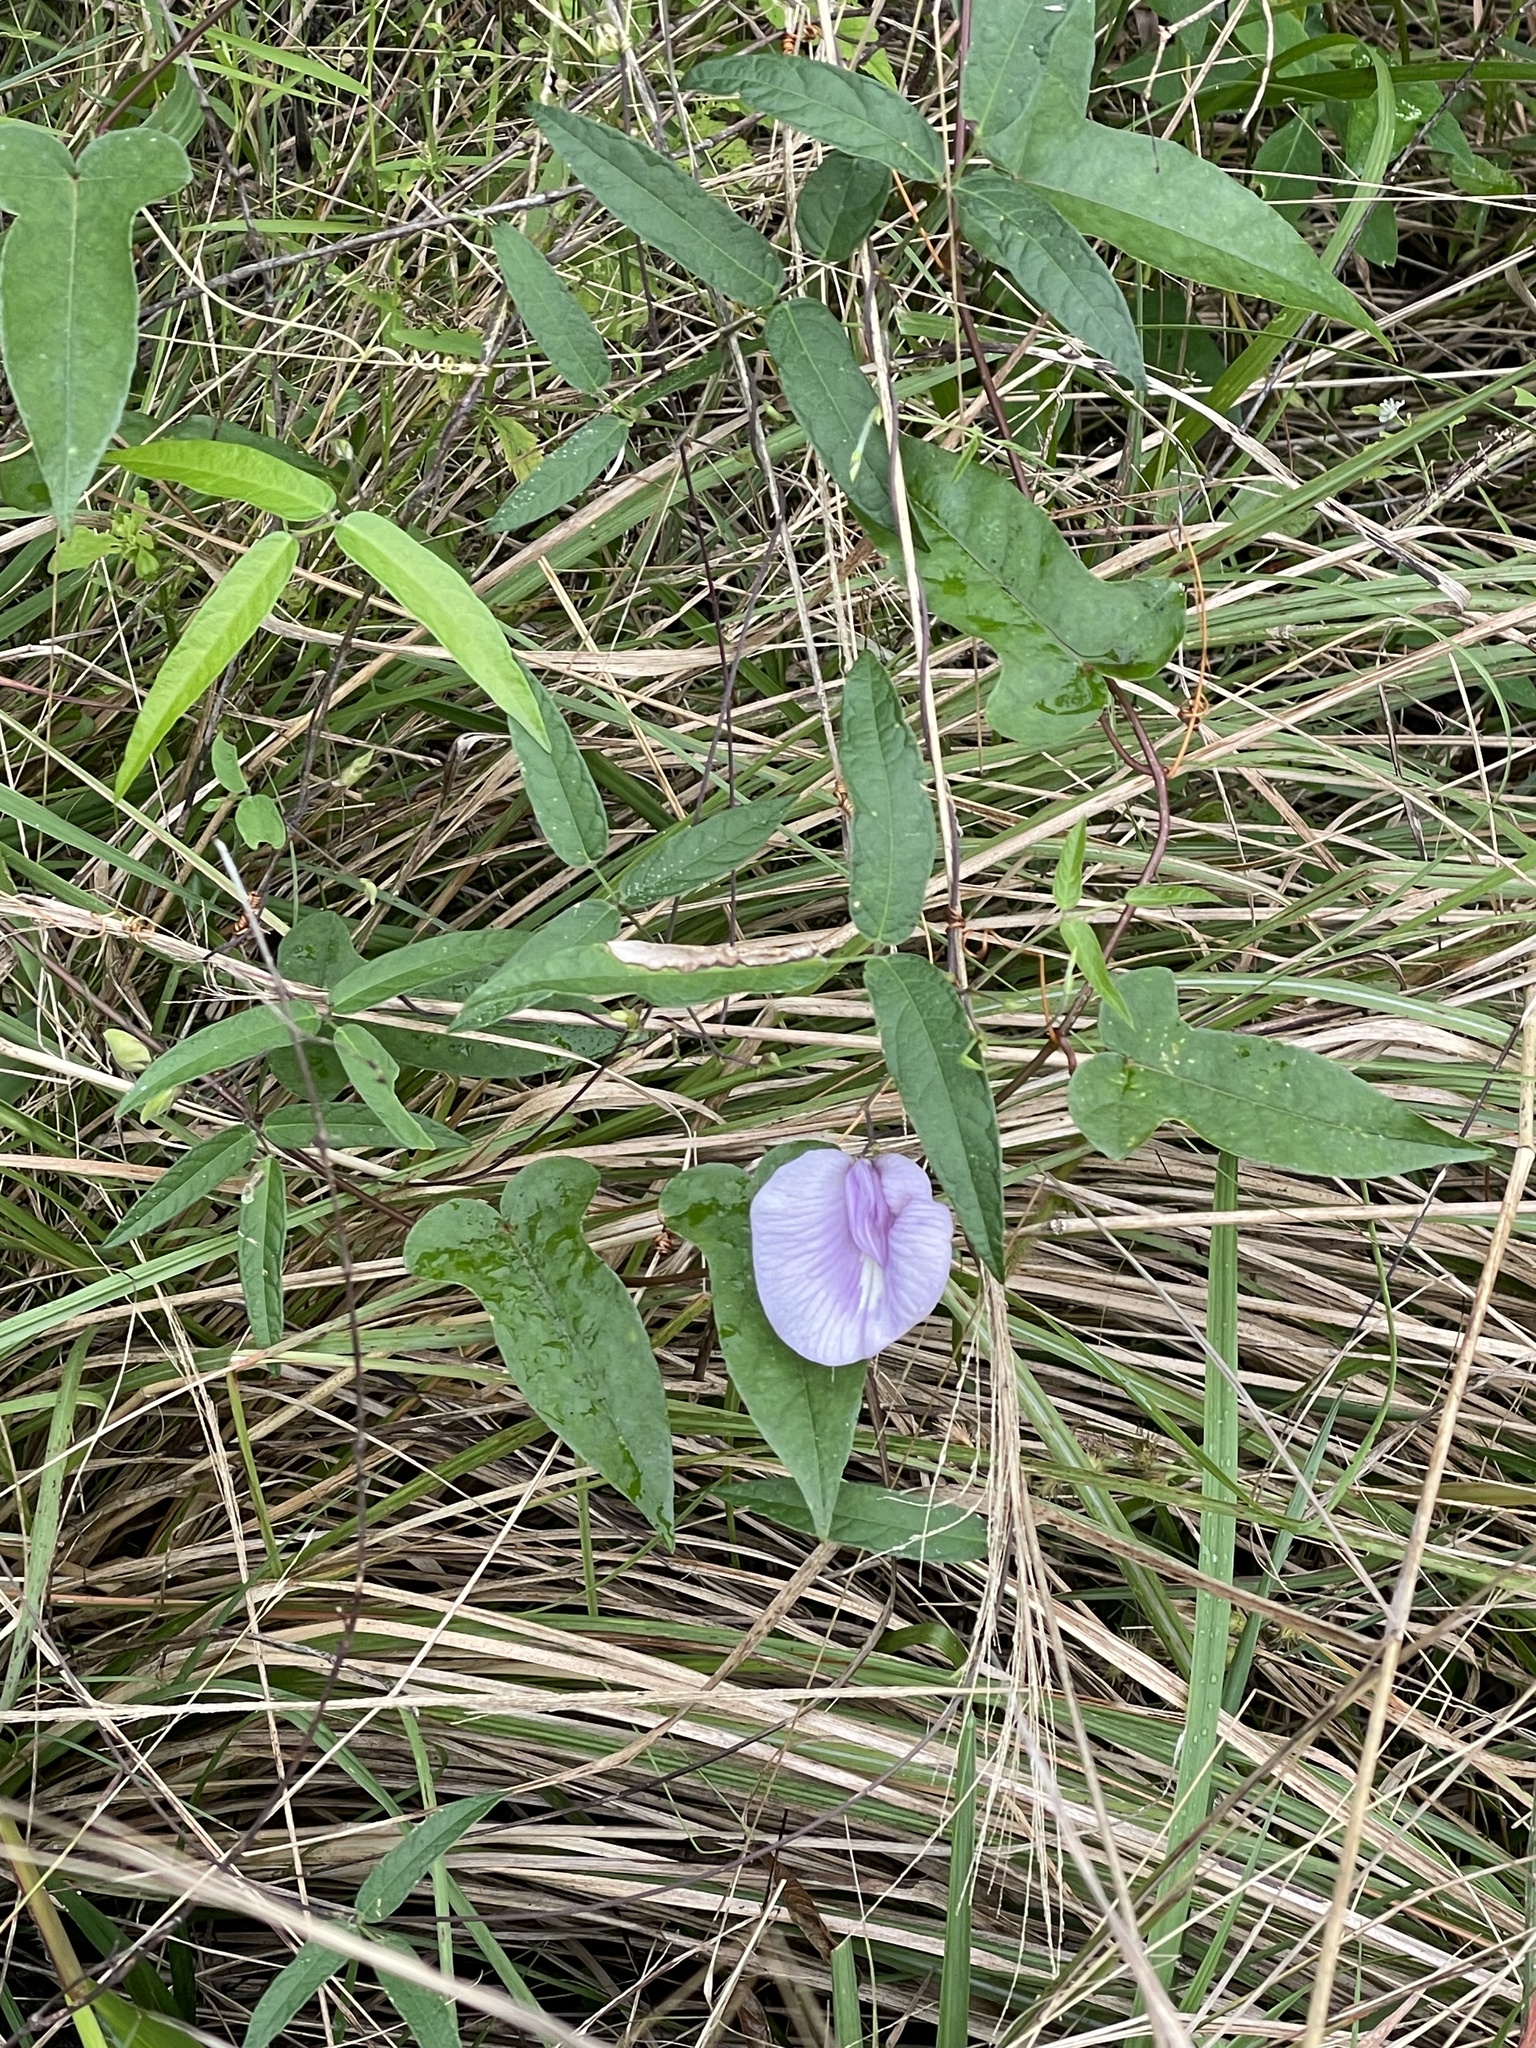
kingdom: Plantae
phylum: Tracheophyta
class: Magnoliopsida
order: Fabales
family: Fabaceae
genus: Centrosema
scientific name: Centrosema virginianum
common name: Butterfly-pea
